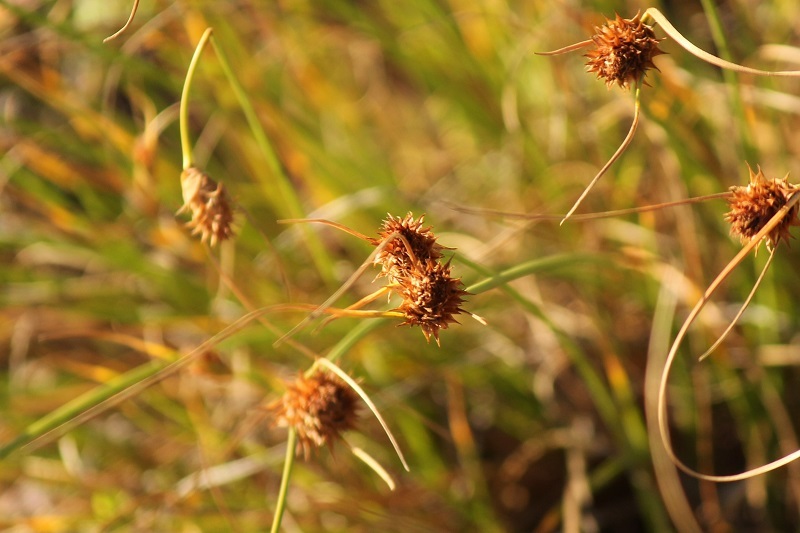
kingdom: Plantae
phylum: Tracheophyta
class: Liliopsida
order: Poales
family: Cyperaceae
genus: Ficinia
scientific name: Ficinia nigrescens
